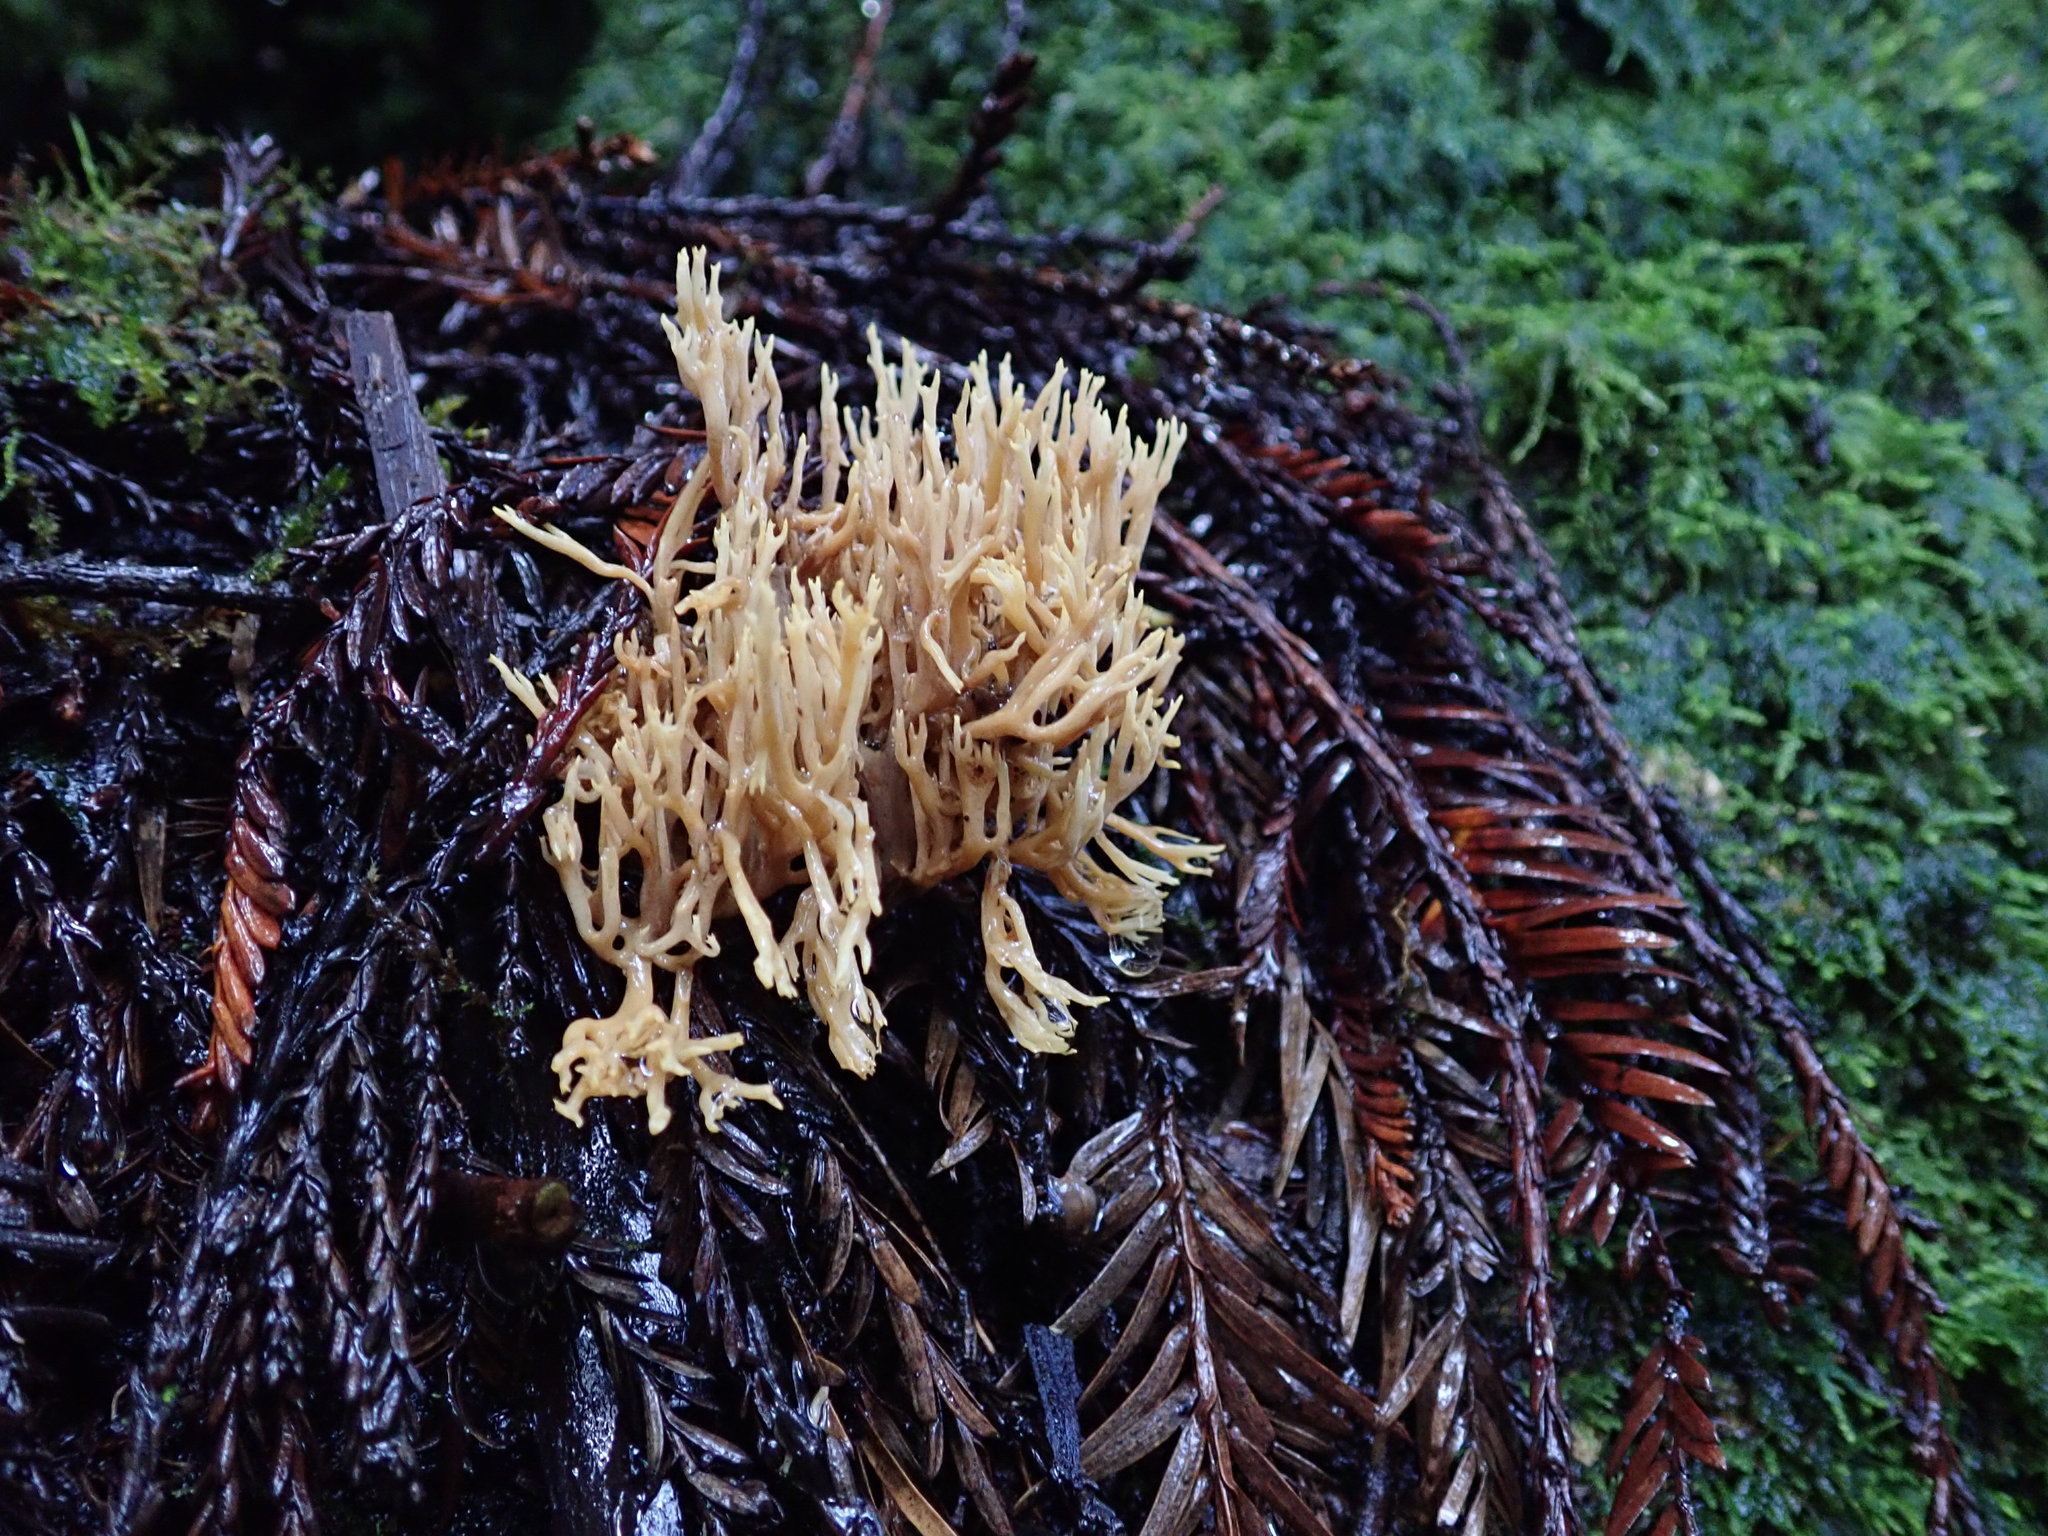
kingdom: Fungi
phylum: Basidiomycota
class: Agaricomycetes
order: Gomphales
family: Gomphaceae
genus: Phaeoclavulina
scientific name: Phaeoclavulina myceliosa
